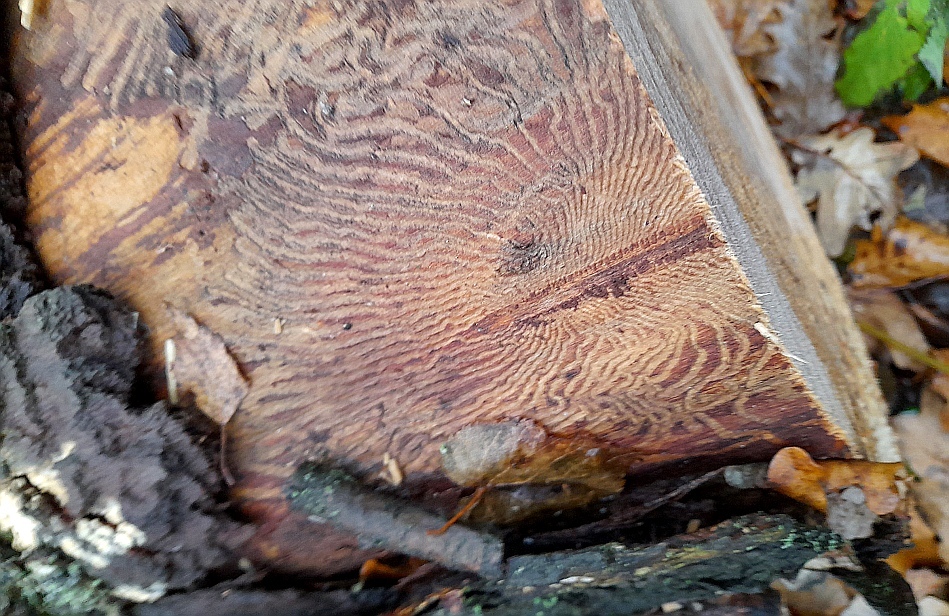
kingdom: Animalia
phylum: Arthropoda
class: Insecta
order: Coleoptera
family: Curculionidae
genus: Scolytus
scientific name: Scolytus ratzeburgii
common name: Birch bark beetle
